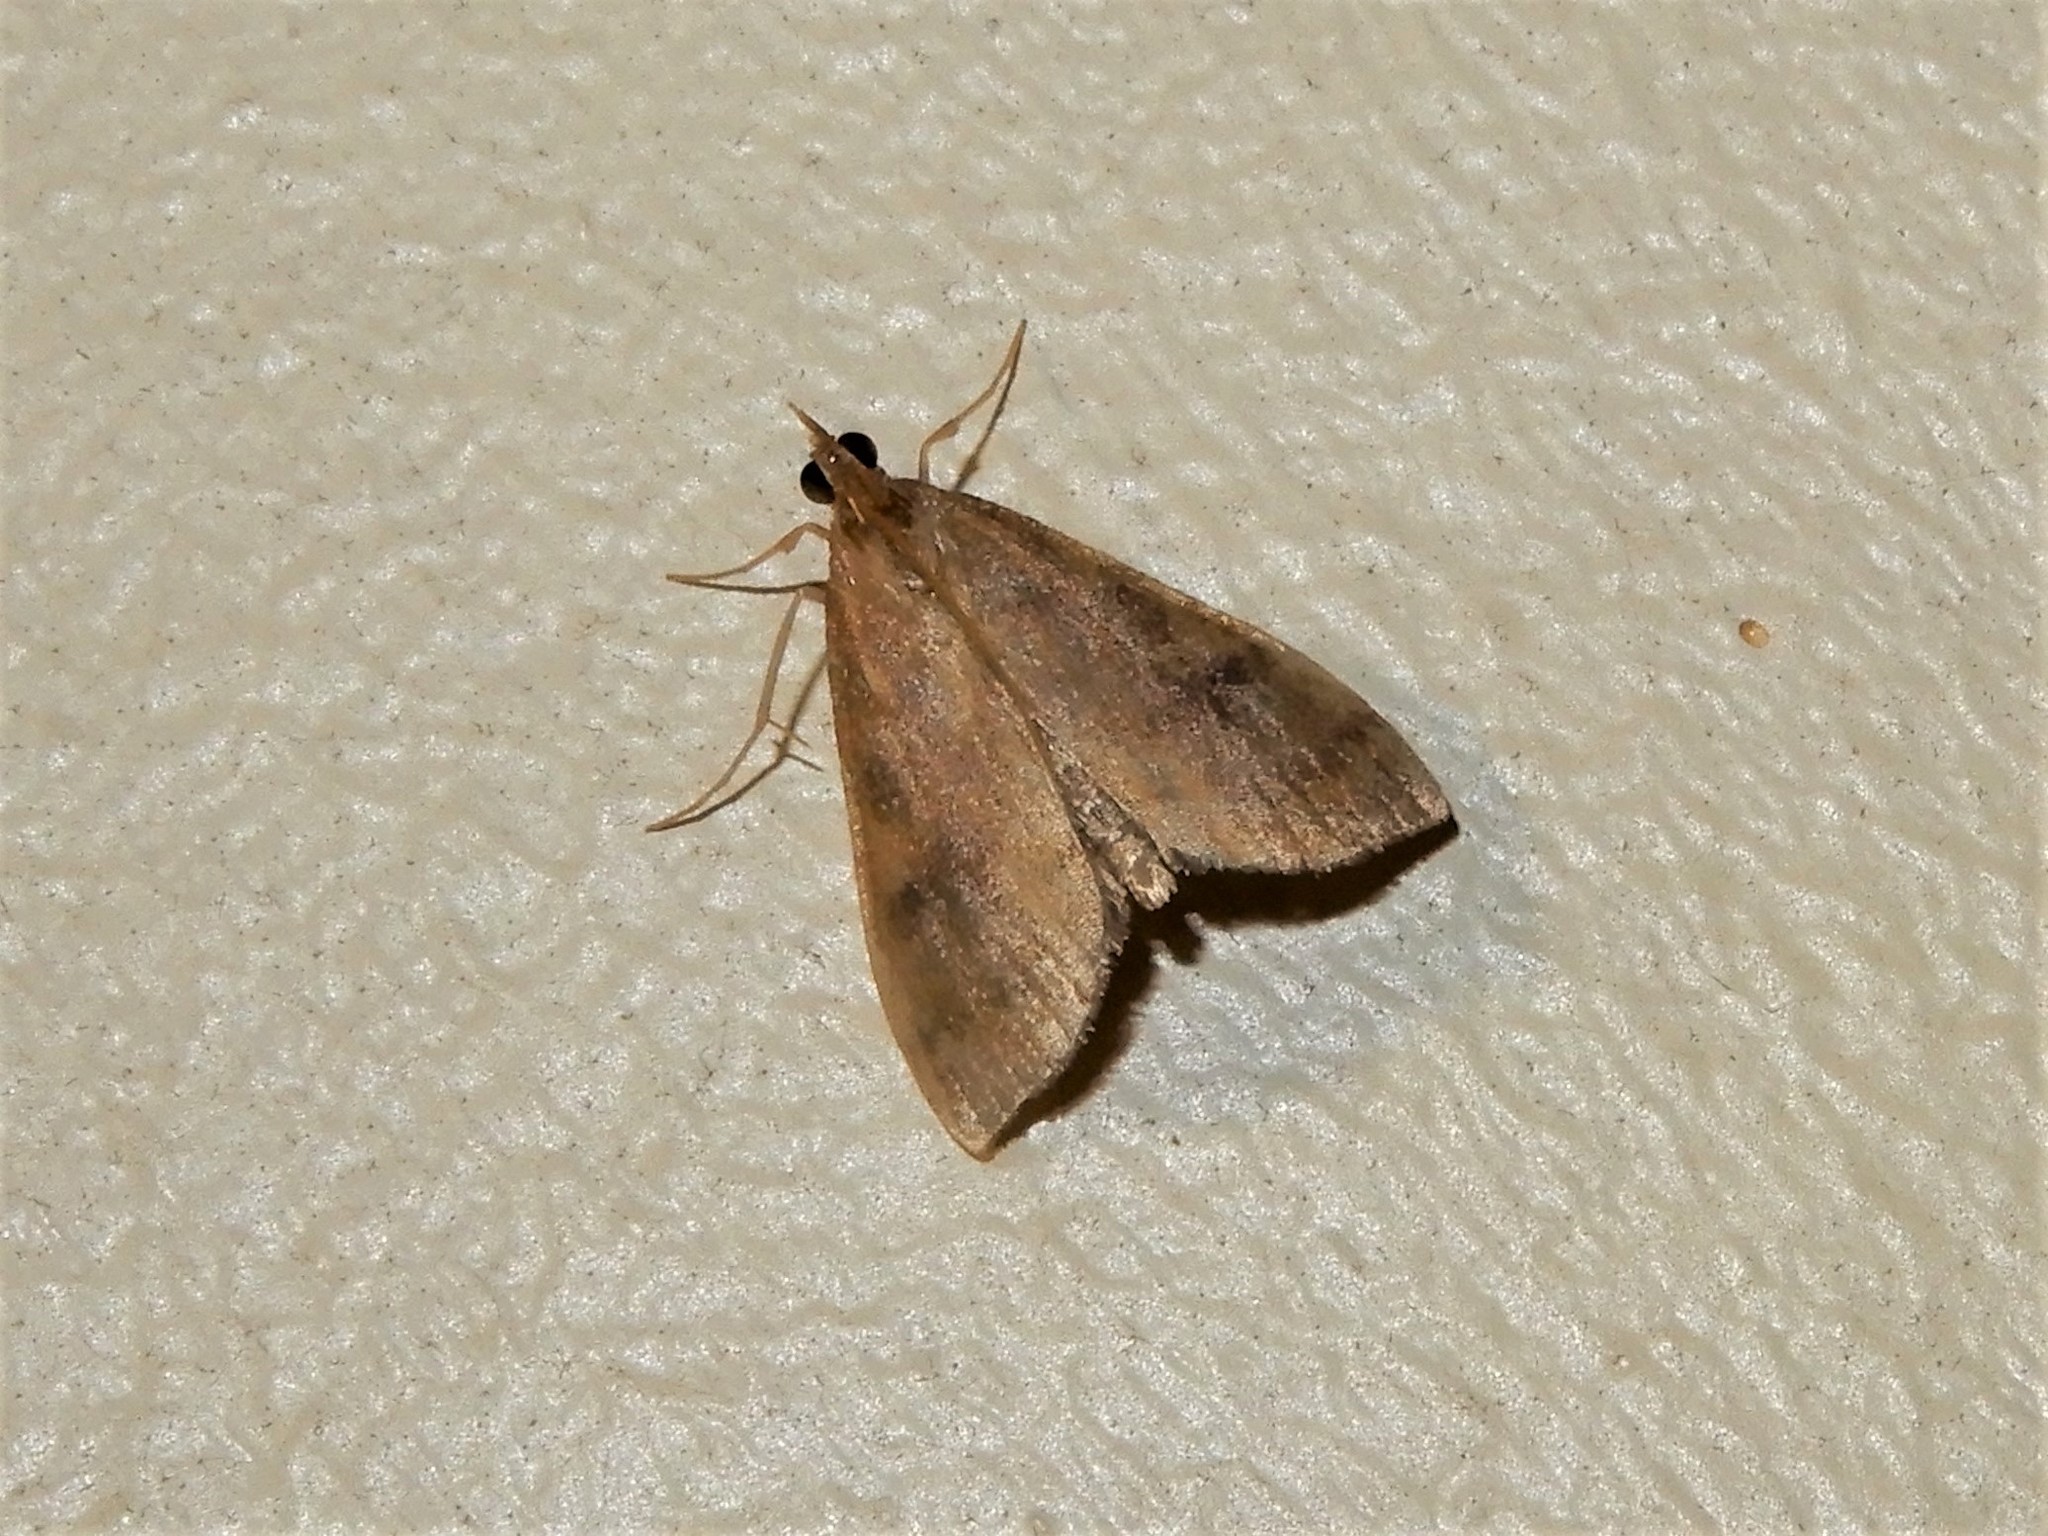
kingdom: Animalia
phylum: Arthropoda
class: Insecta
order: Lepidoptera
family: Crambidae
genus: Udea
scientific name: Udea Mnesictena flavidalis
